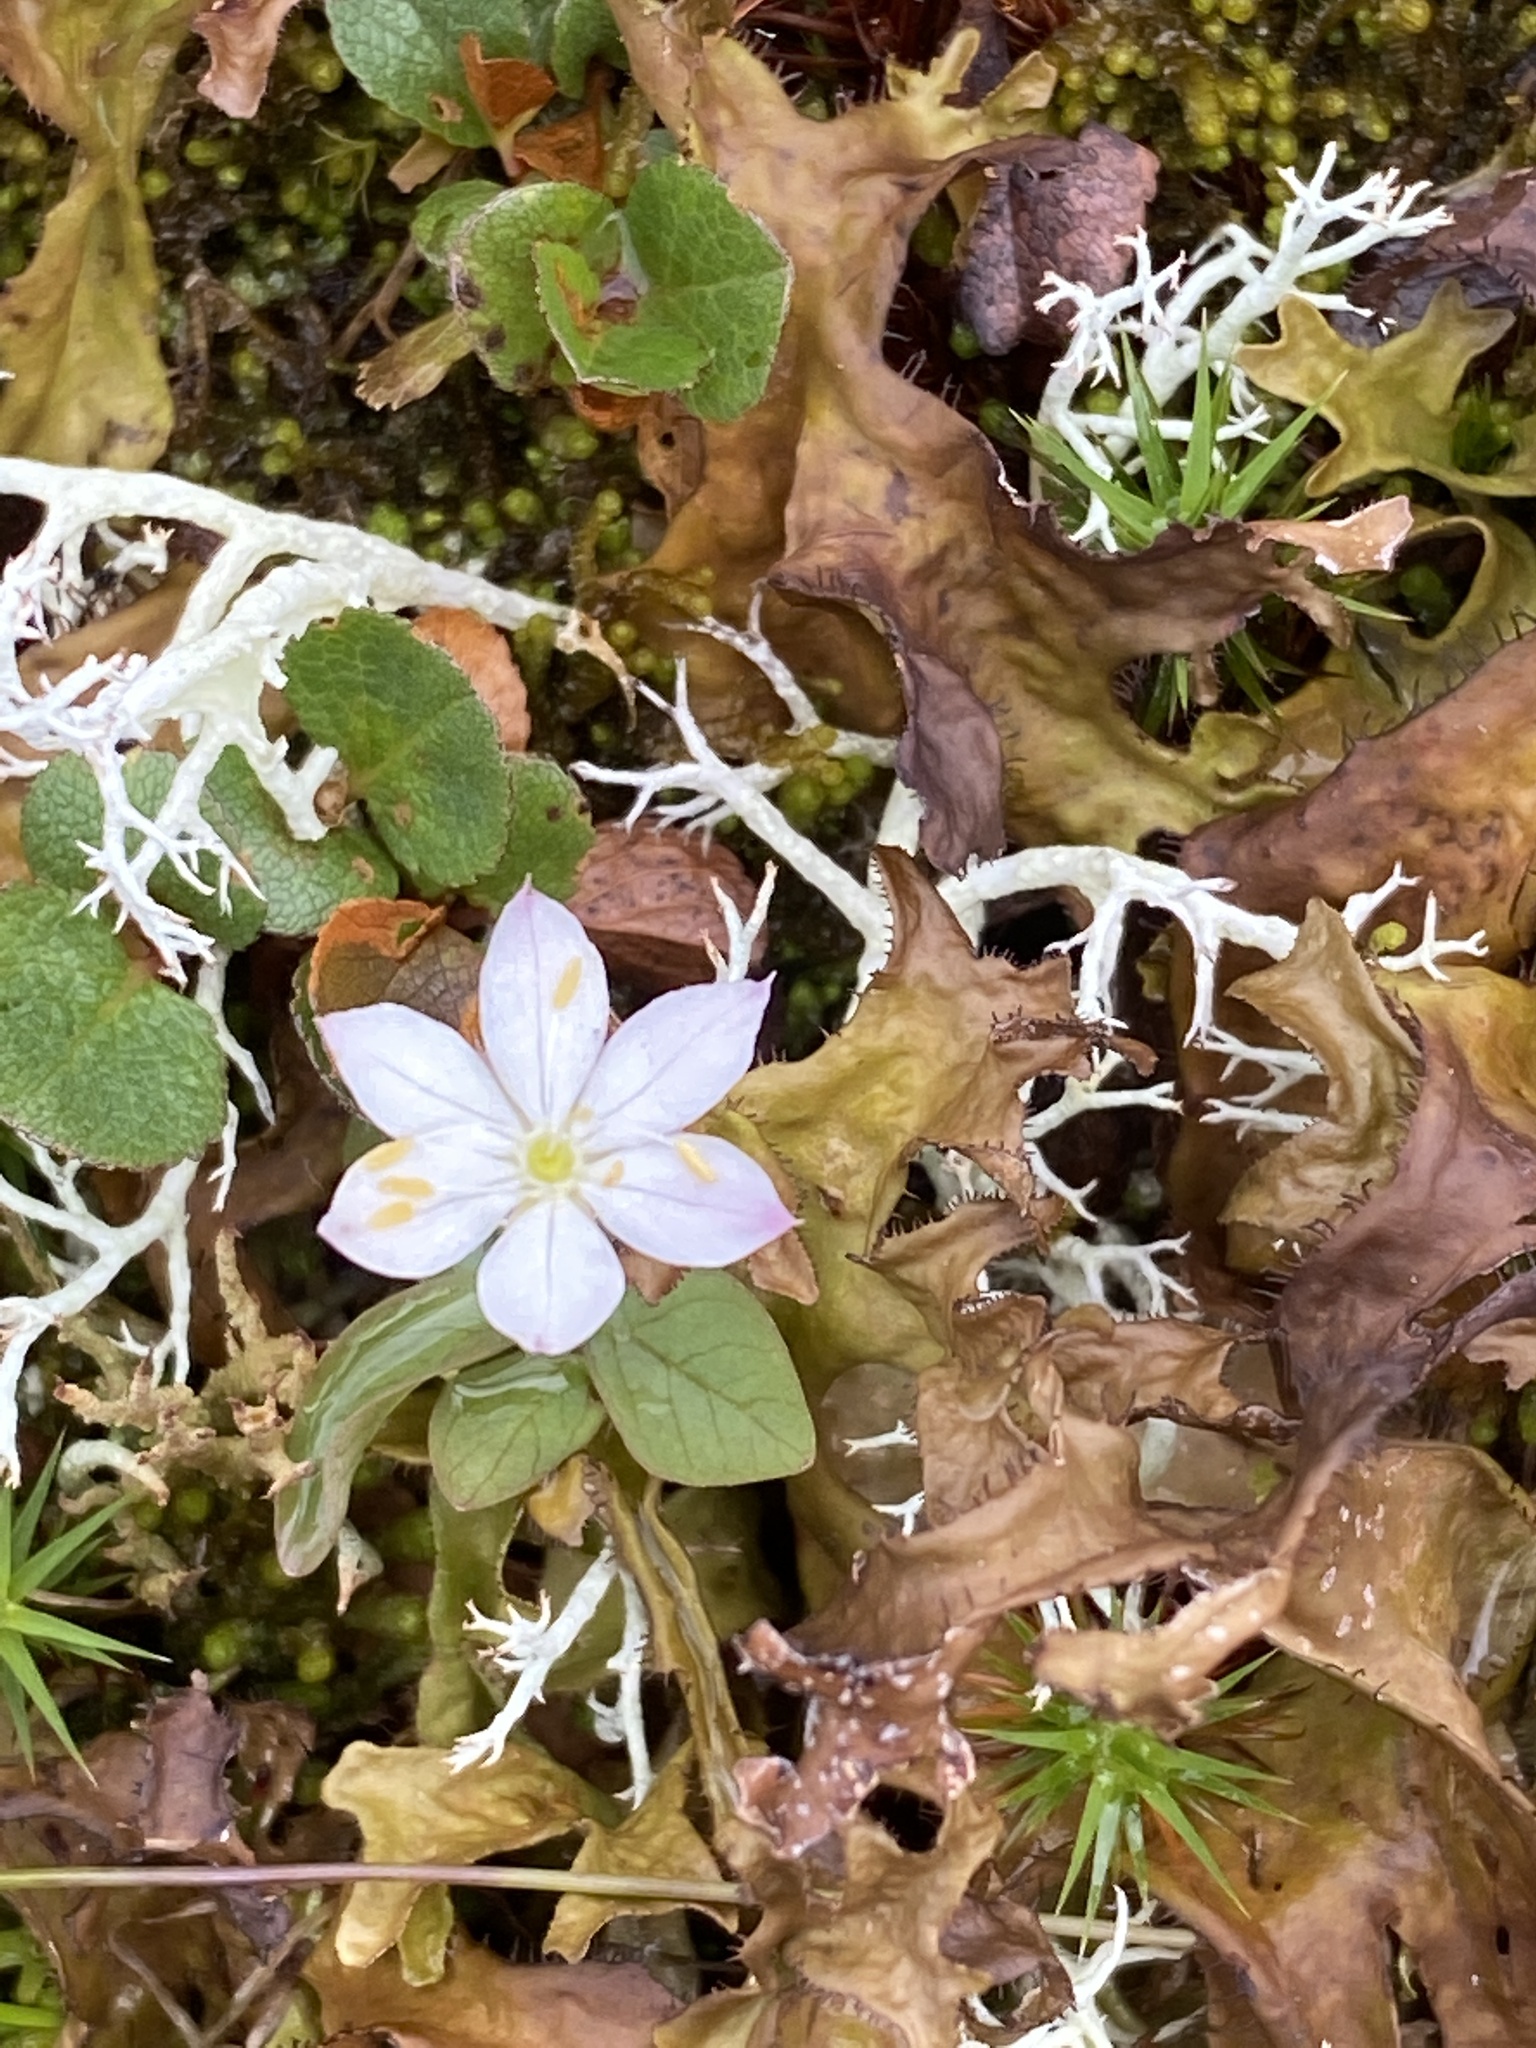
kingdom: Plantae
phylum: Tracheophyta
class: Magnoliopsida
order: Ericales
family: Primulaceae
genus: Lysimachia
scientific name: Lysimachia europaea
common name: Arctic starflower
